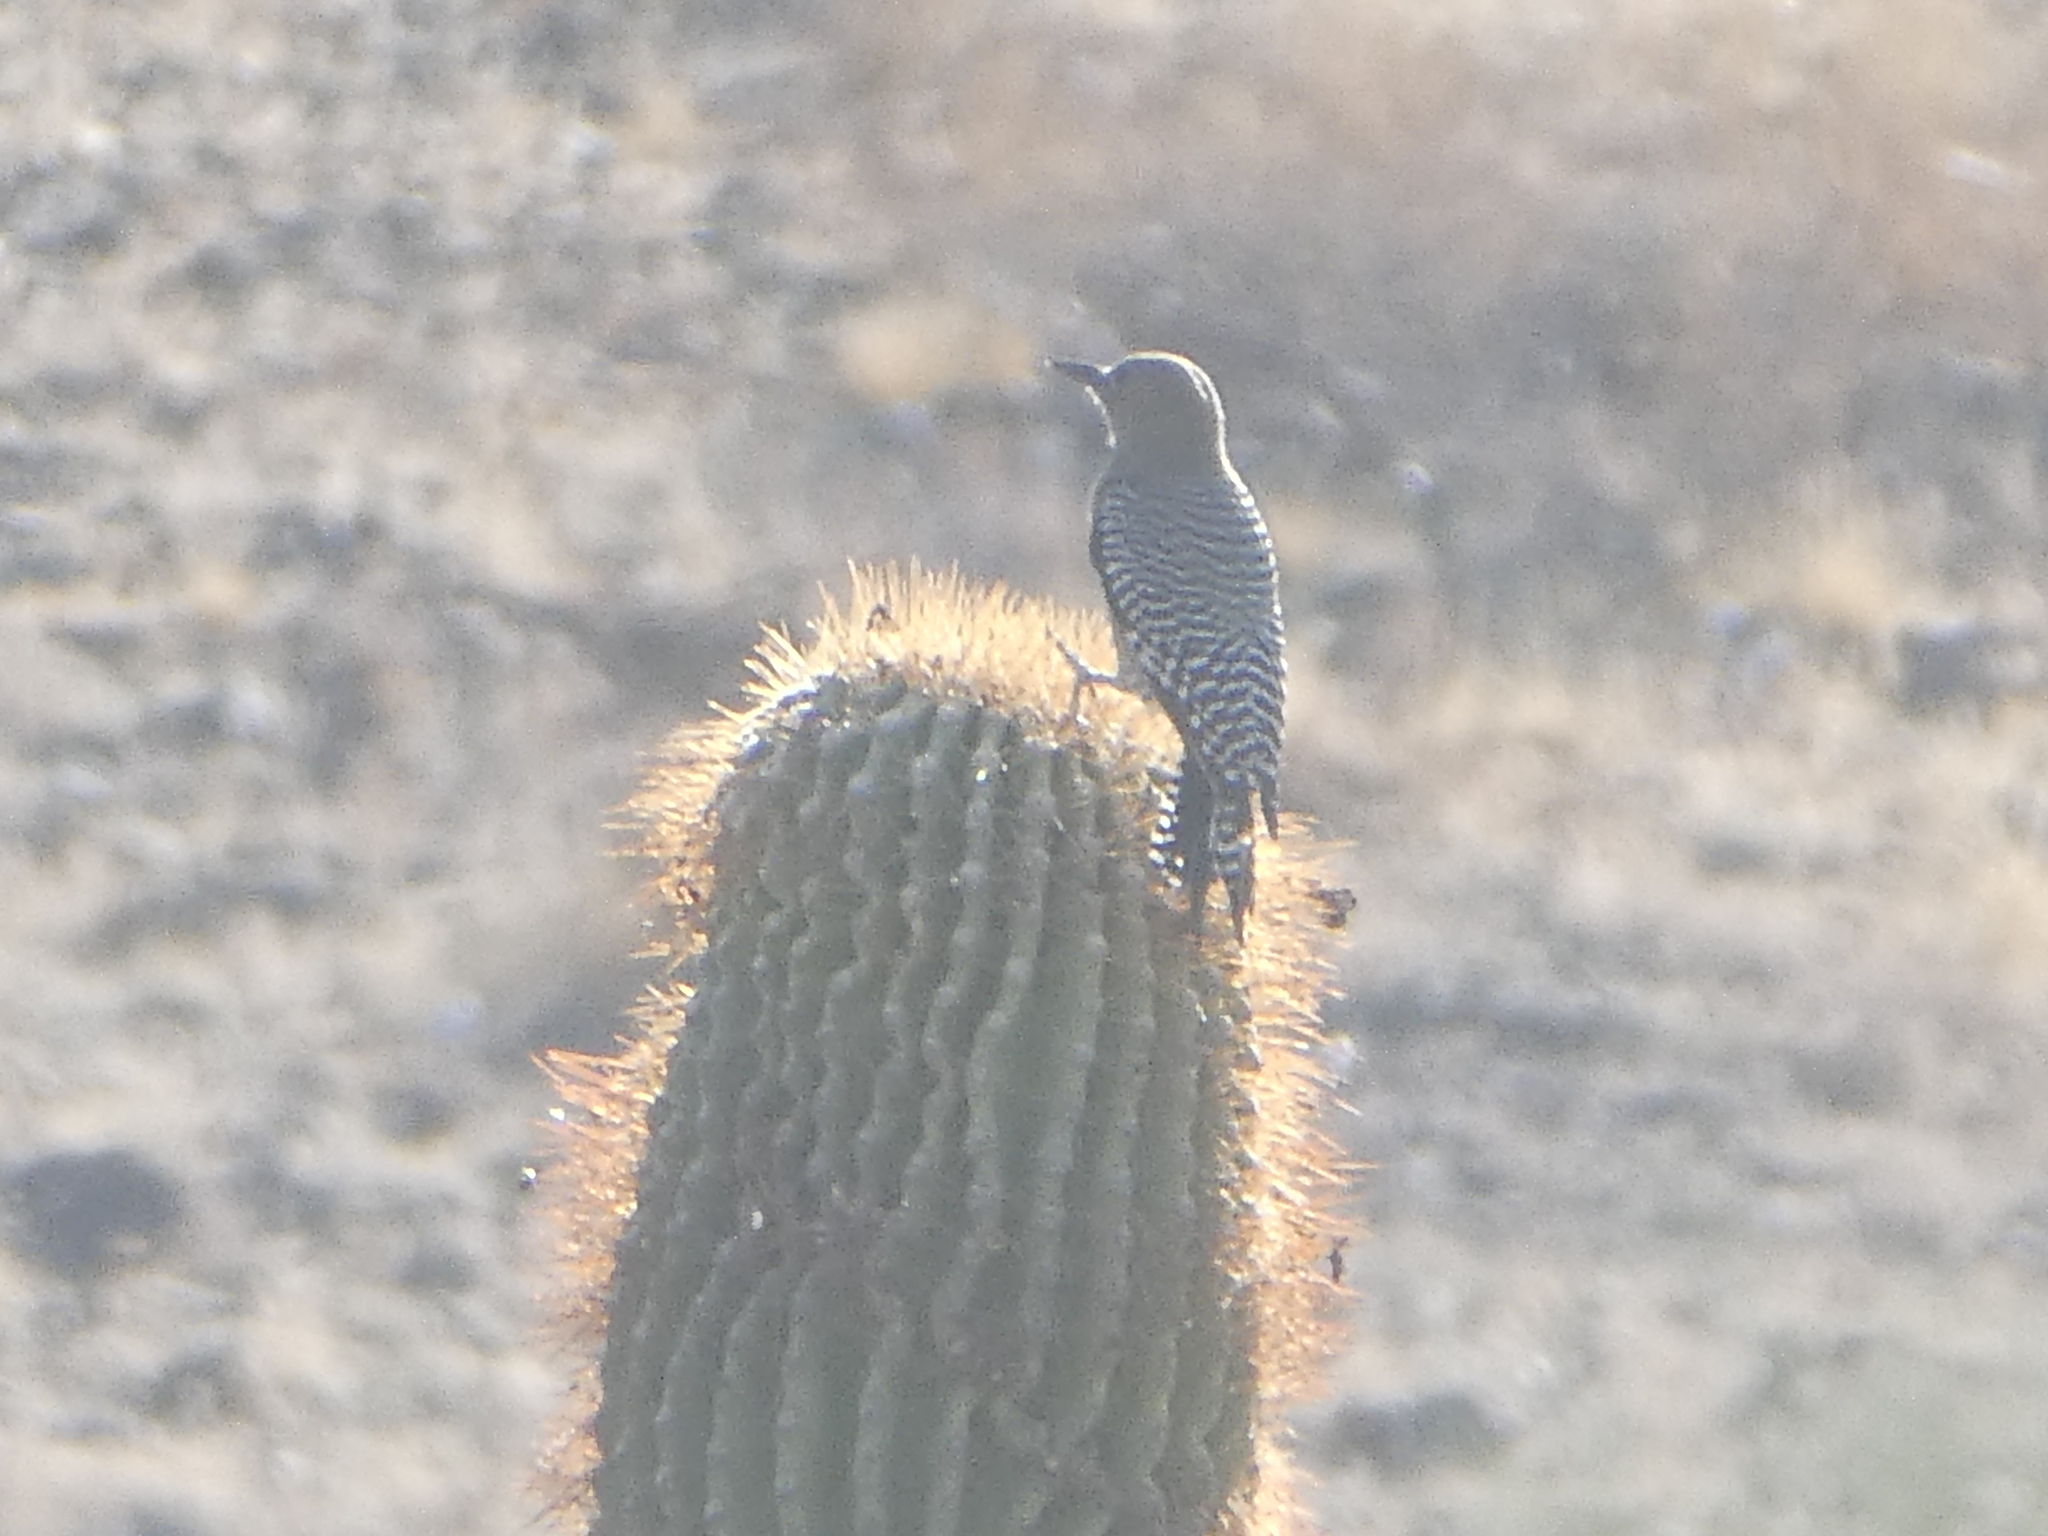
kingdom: Animalia
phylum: Chordata
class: Aves
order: Piciformes
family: Picidae
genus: Melanerpes
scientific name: Melanerpes uropygialis
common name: Gila woodpecker
